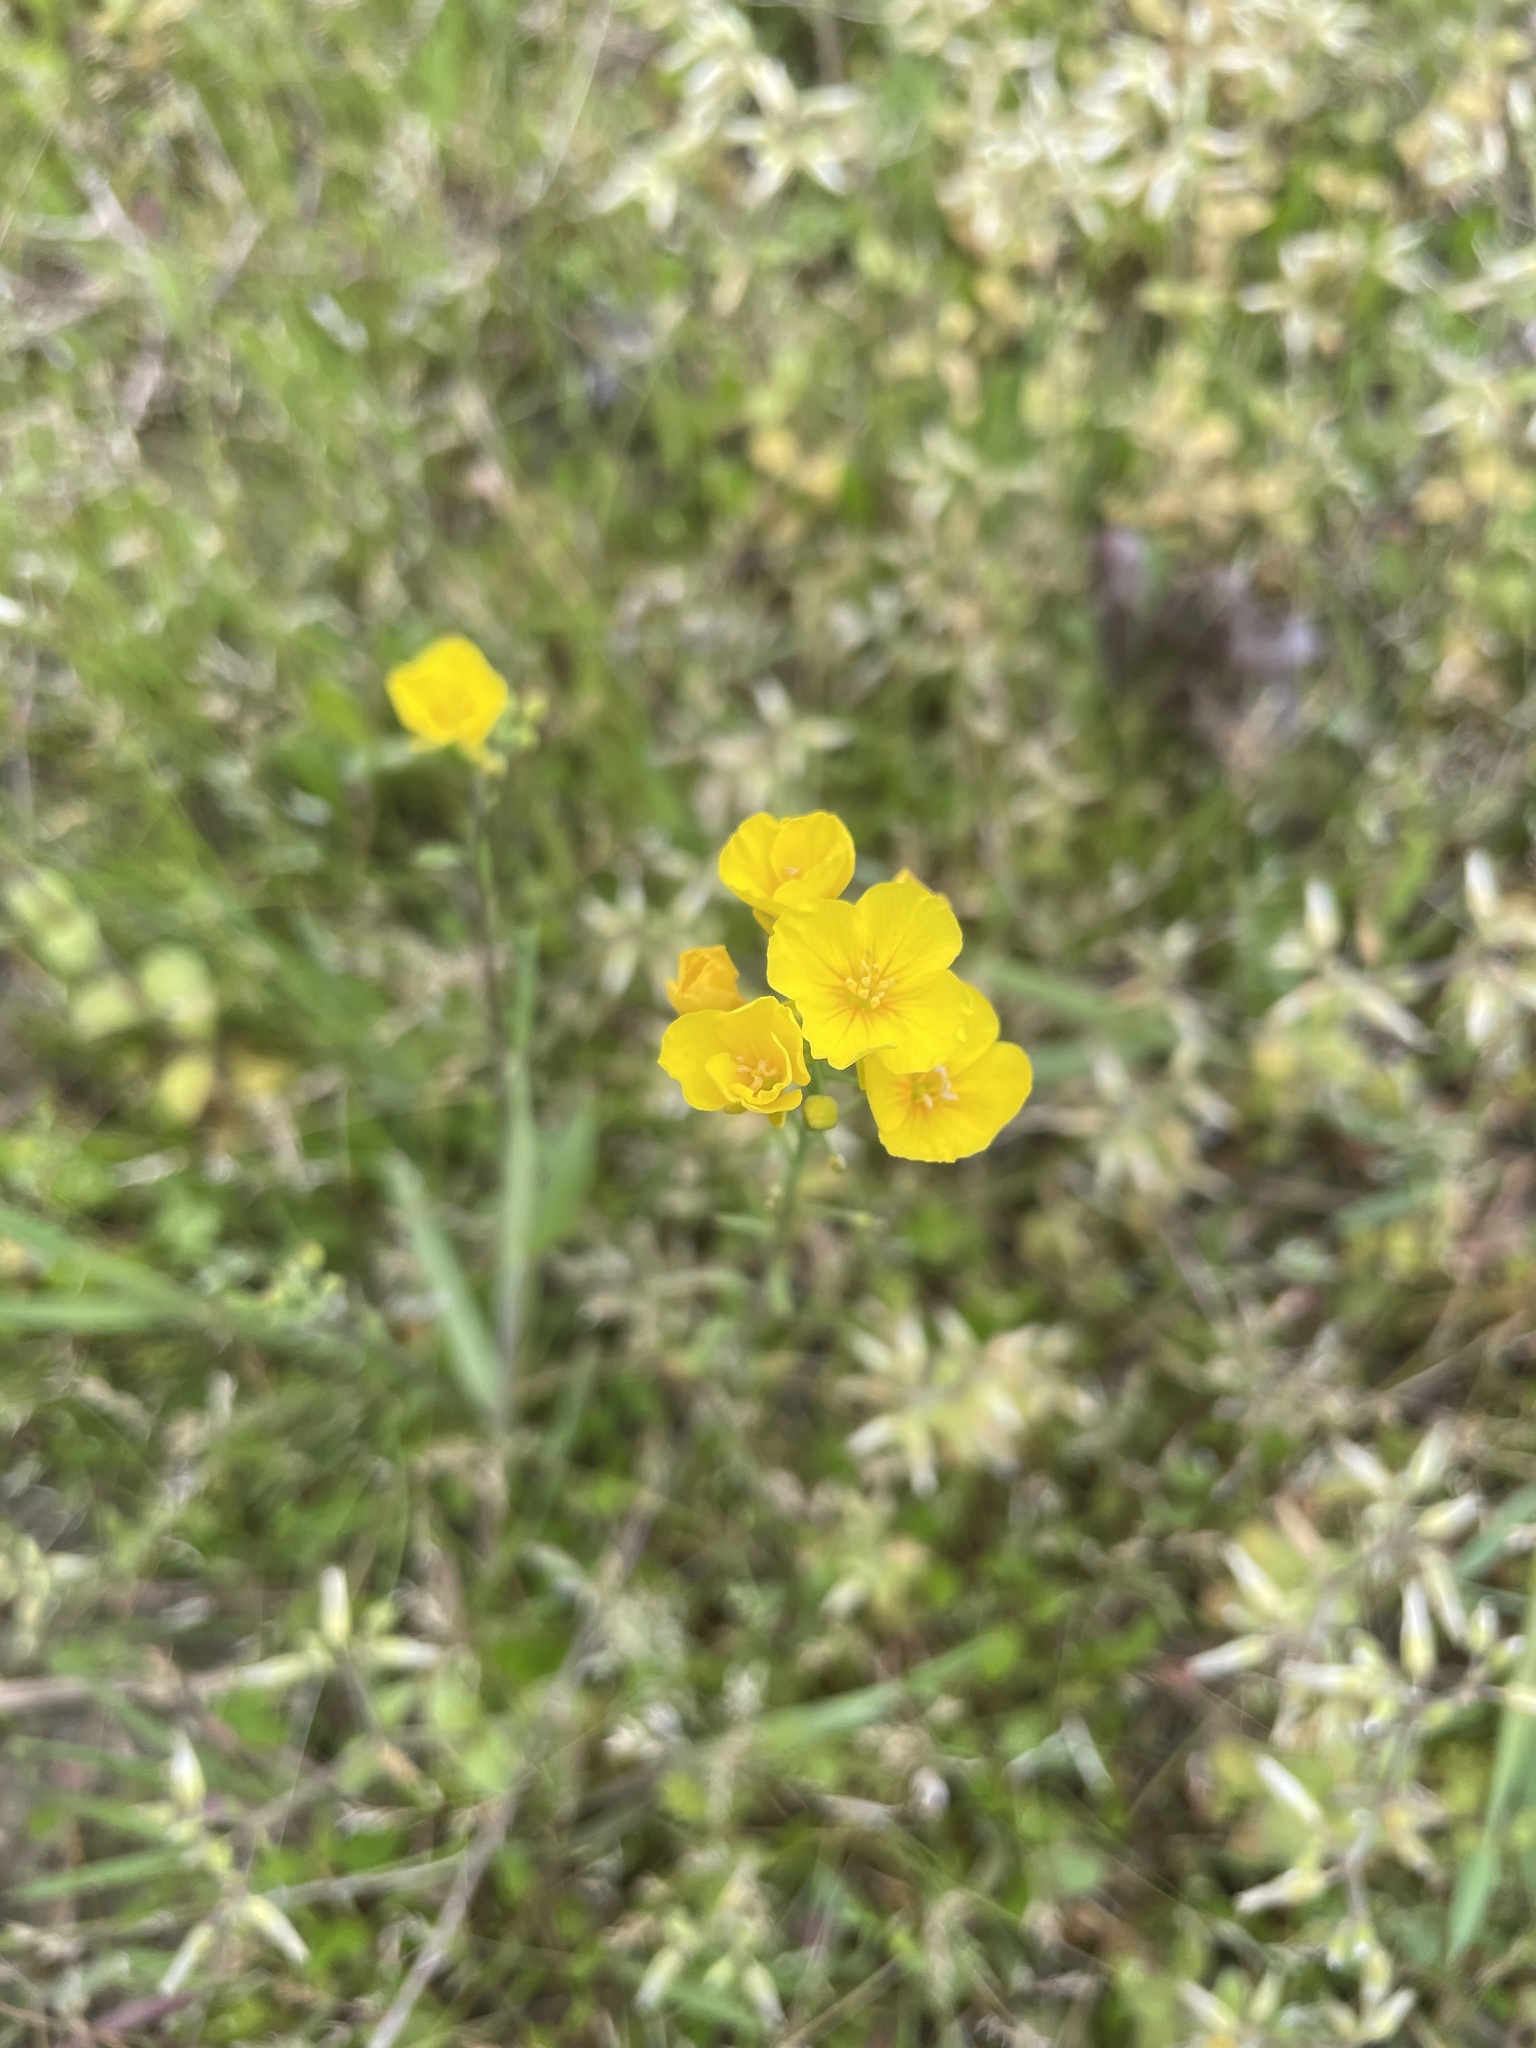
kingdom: Plantae
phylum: Tracheophyta
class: Magnoliopsida
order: Brassicales
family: Brassicaceae
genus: Physaria
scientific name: Physaria gracilis
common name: Spreading bladderpod
